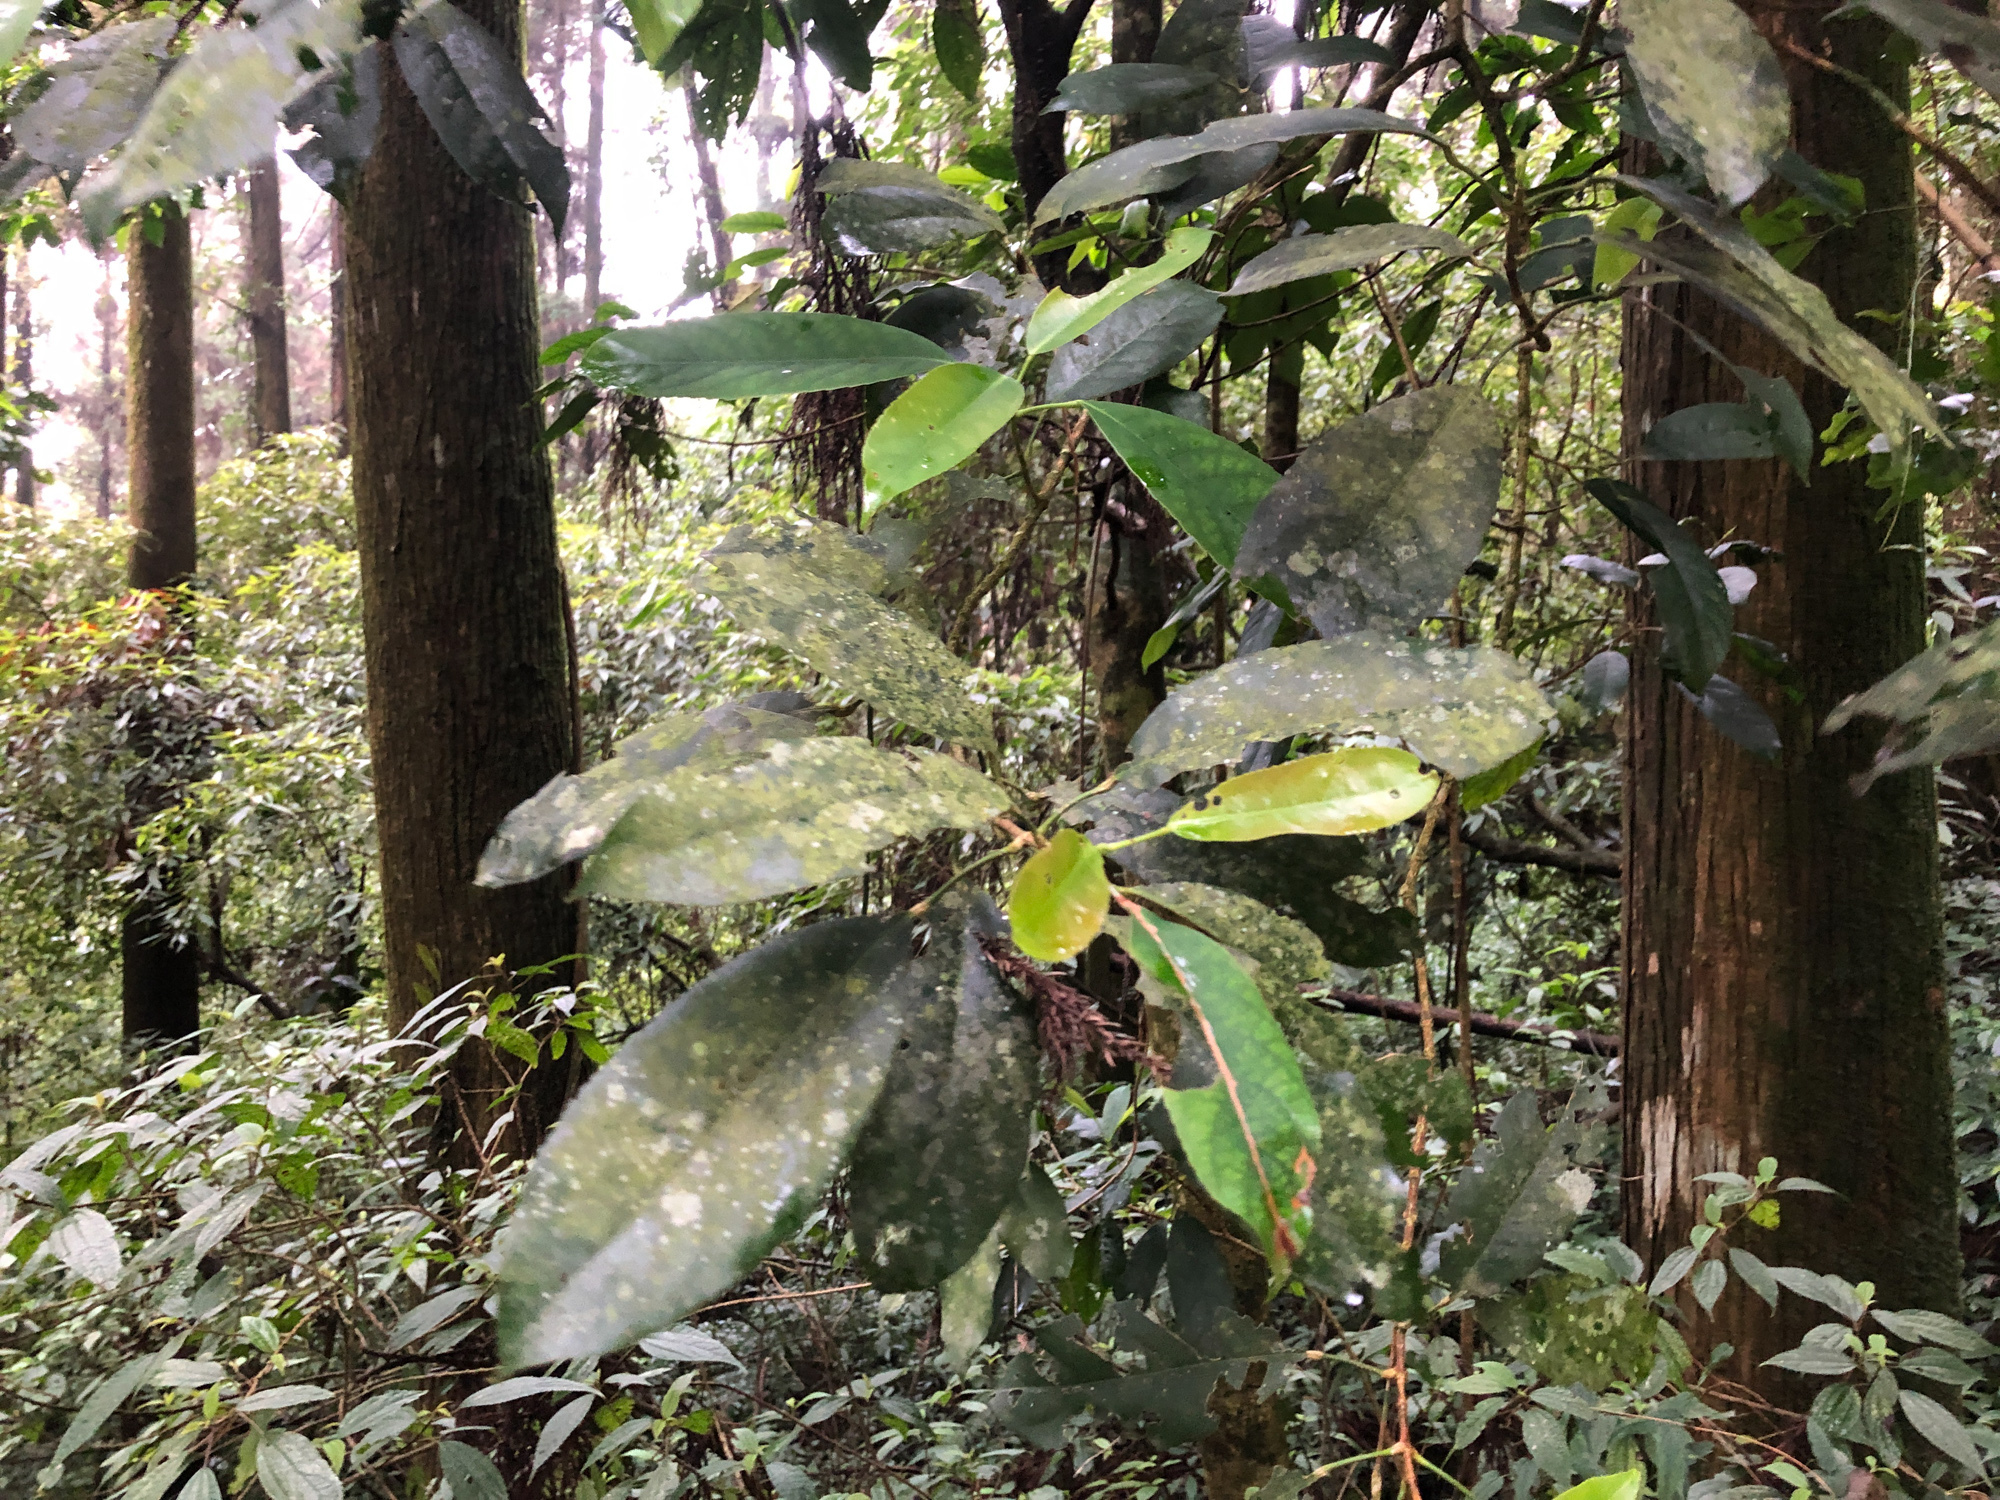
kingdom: Plantae
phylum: Tracheophyta
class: Magnoliopsida
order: Crossosomatales
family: Staphyleaceae
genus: Turpinia
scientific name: Turpinia formosana
